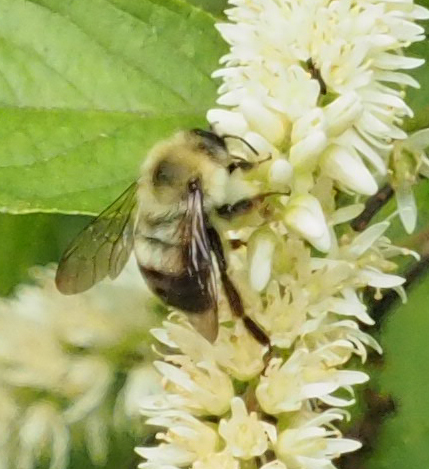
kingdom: Animalia
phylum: Arthropoda
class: Insecta
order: Hymenoptera
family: Apidae
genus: Bombus
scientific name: Bombus bimaculatus
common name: Two-spotted bumble bee
